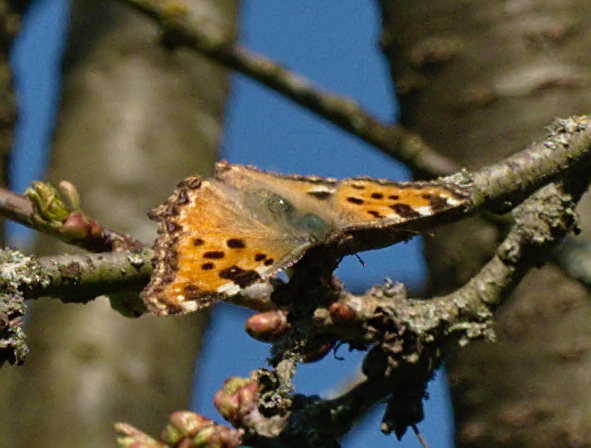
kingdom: Animalia
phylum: Arthropoda
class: Insecta
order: Lepidoptera
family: Nymphalidae
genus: Nymphalis
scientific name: Nymphalis polychloros
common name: Large tortoiseshell
